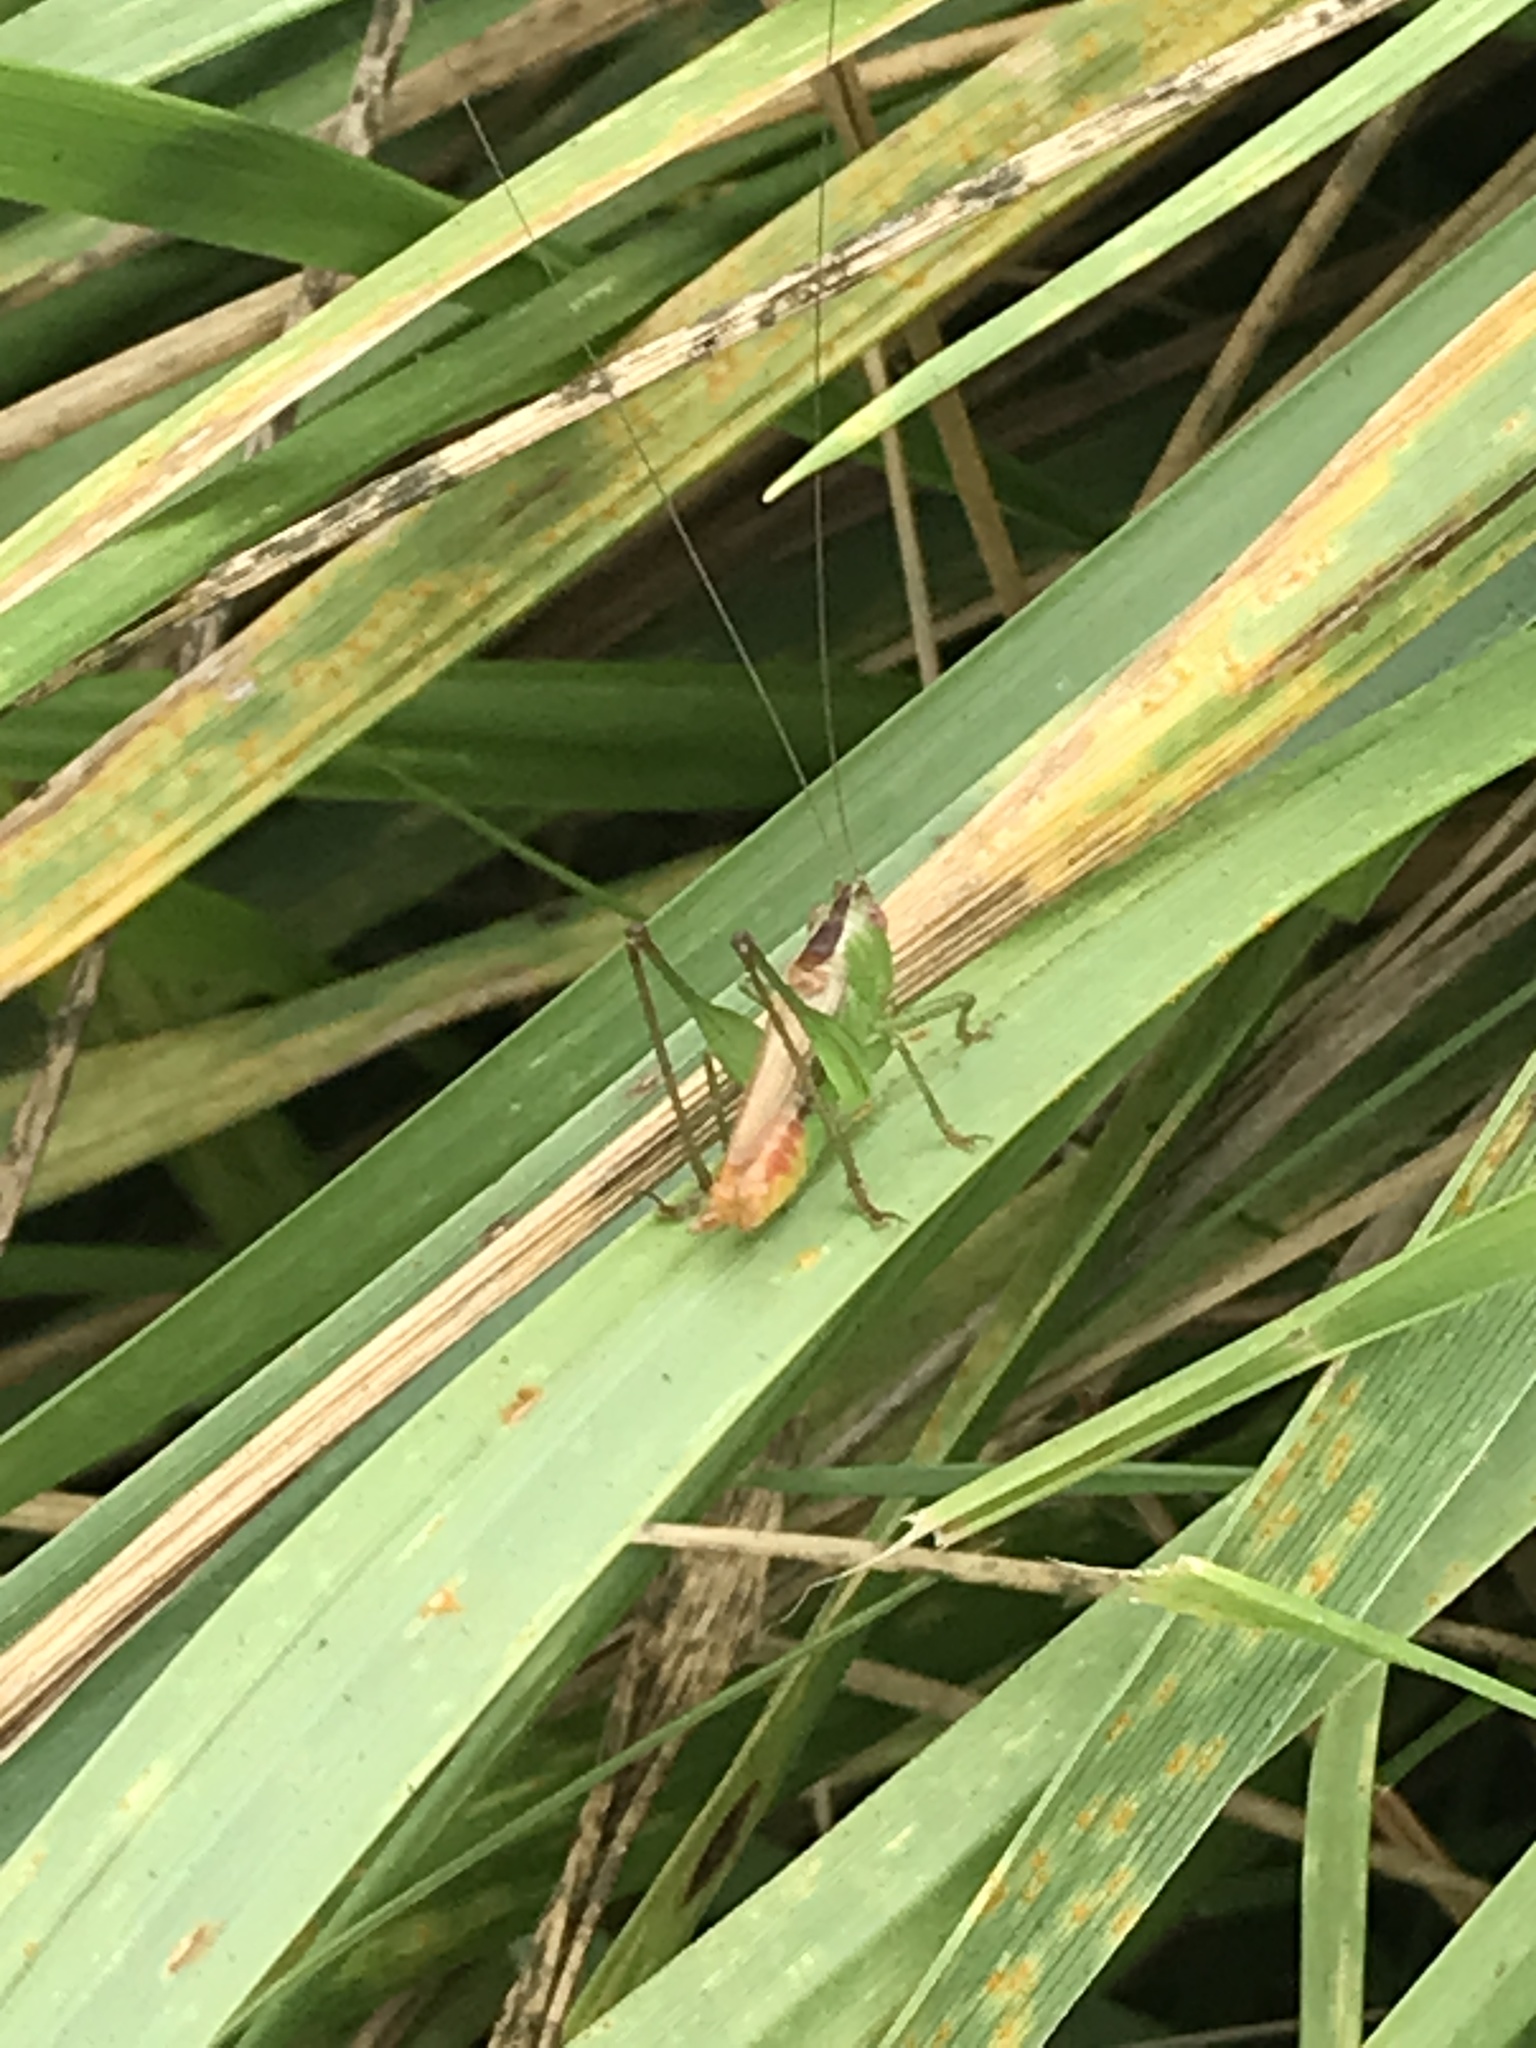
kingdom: Animalia
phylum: Arthropoda
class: Insecta
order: Orthoptera
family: Tettigoniidae
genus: Conocephalus
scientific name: Conocephalus brevipennis
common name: Short-winged meadow katydid
